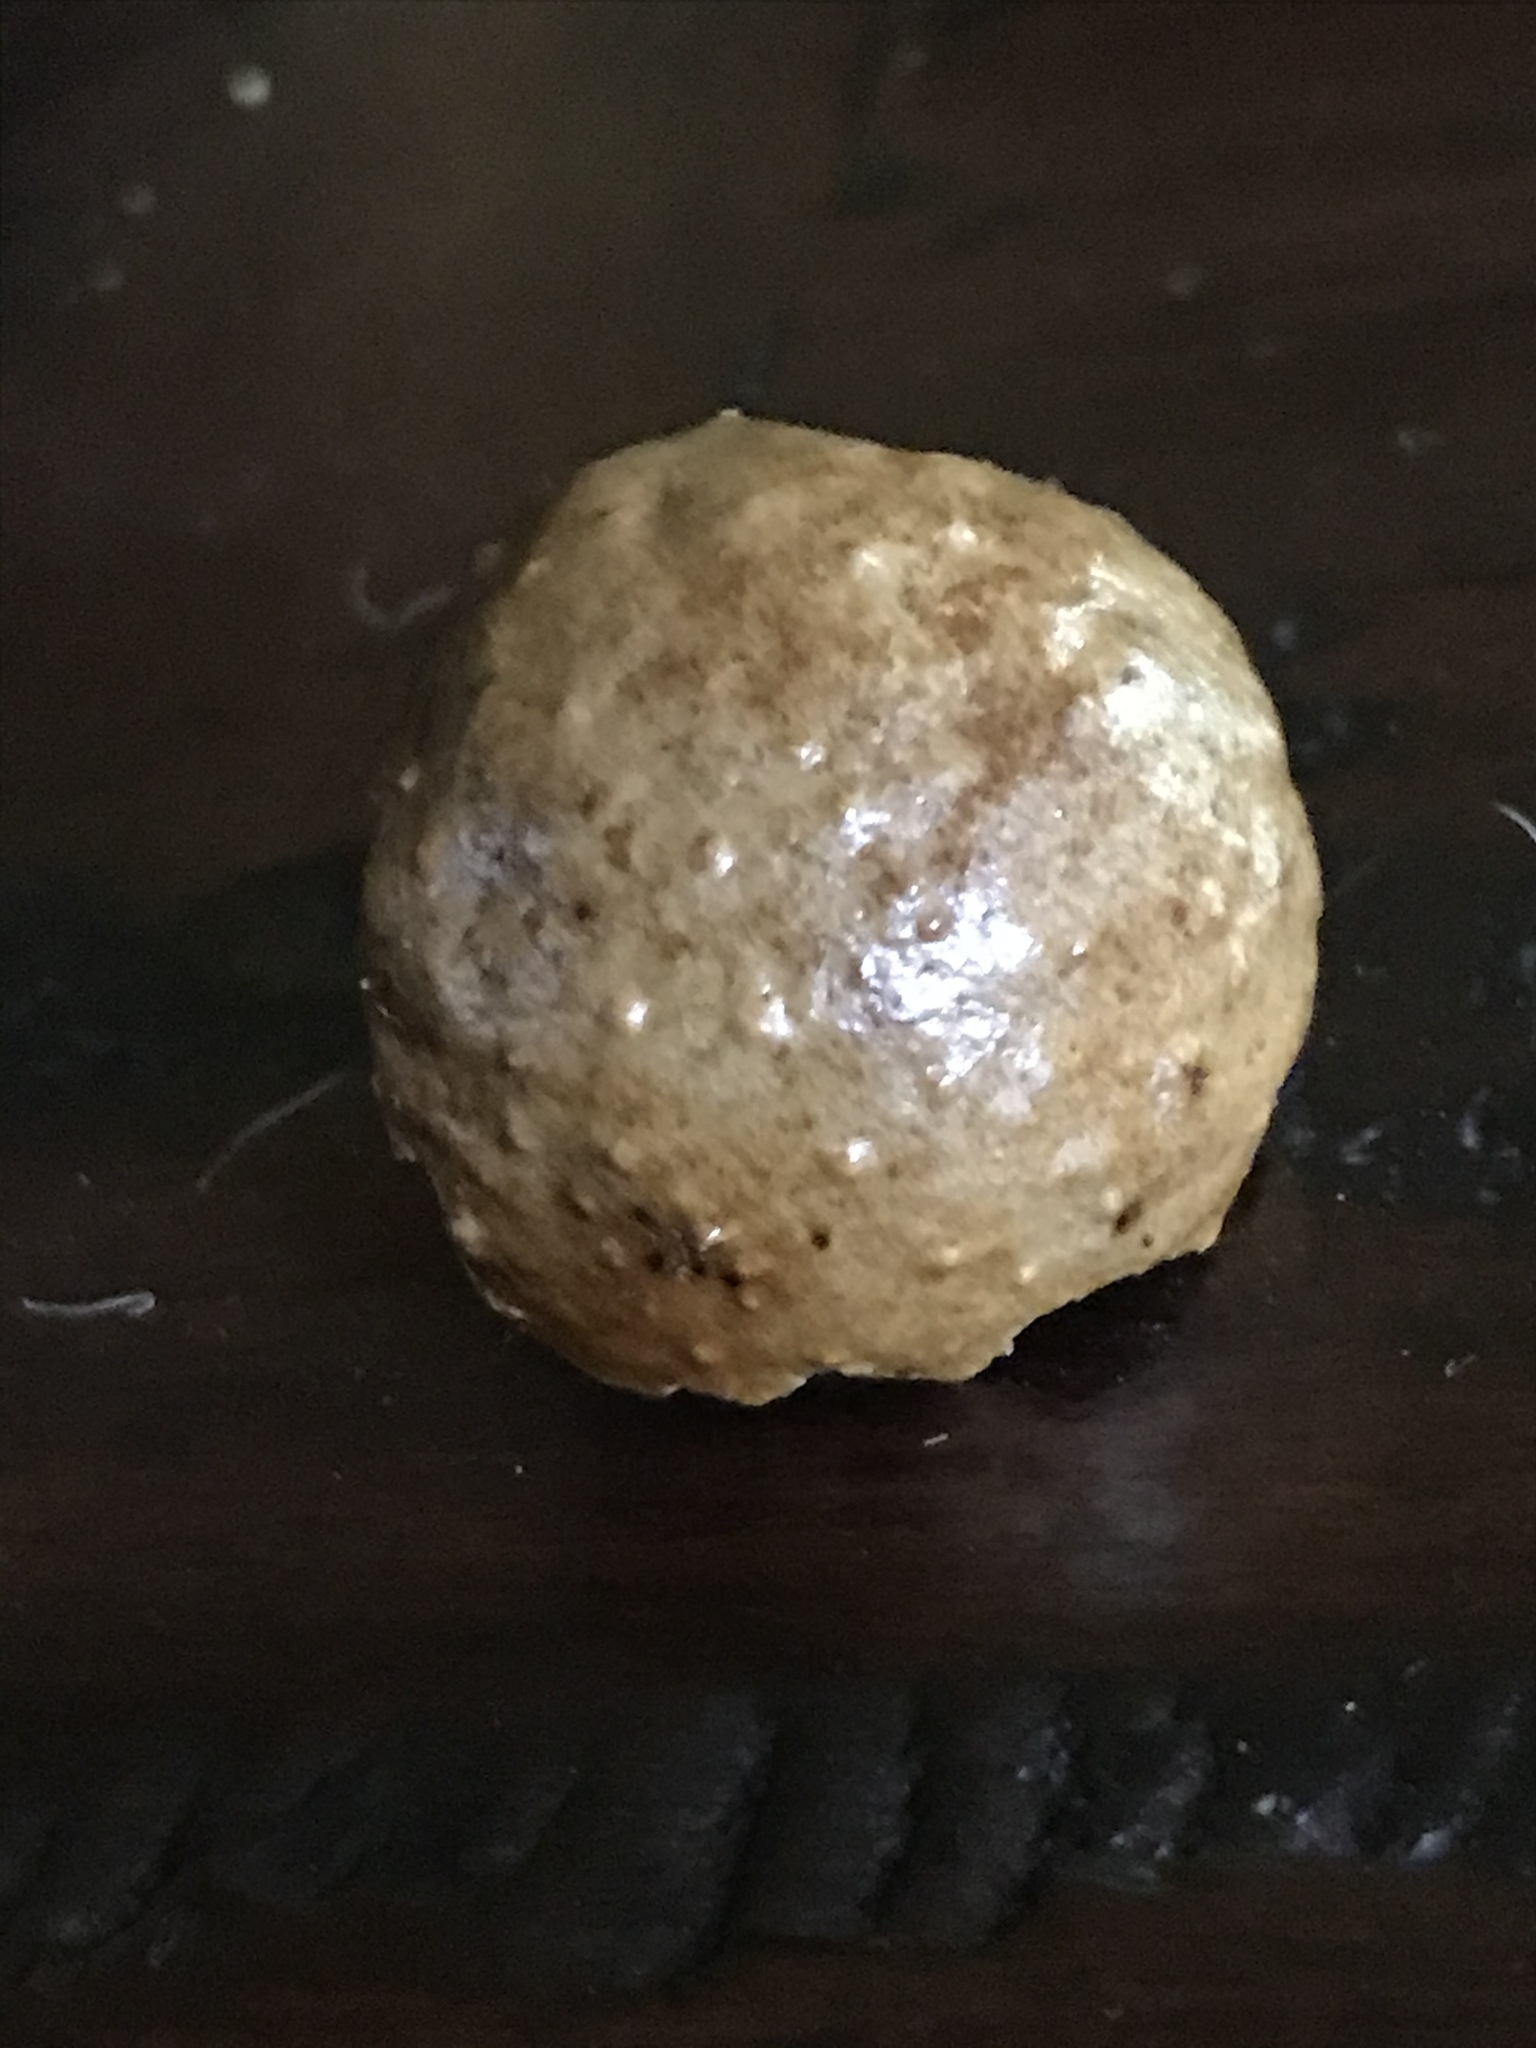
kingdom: Animalia
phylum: Arthropoda
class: Insecta
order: Hymenoptera
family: Cynipidae
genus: Amphibolips
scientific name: Amphibolips
